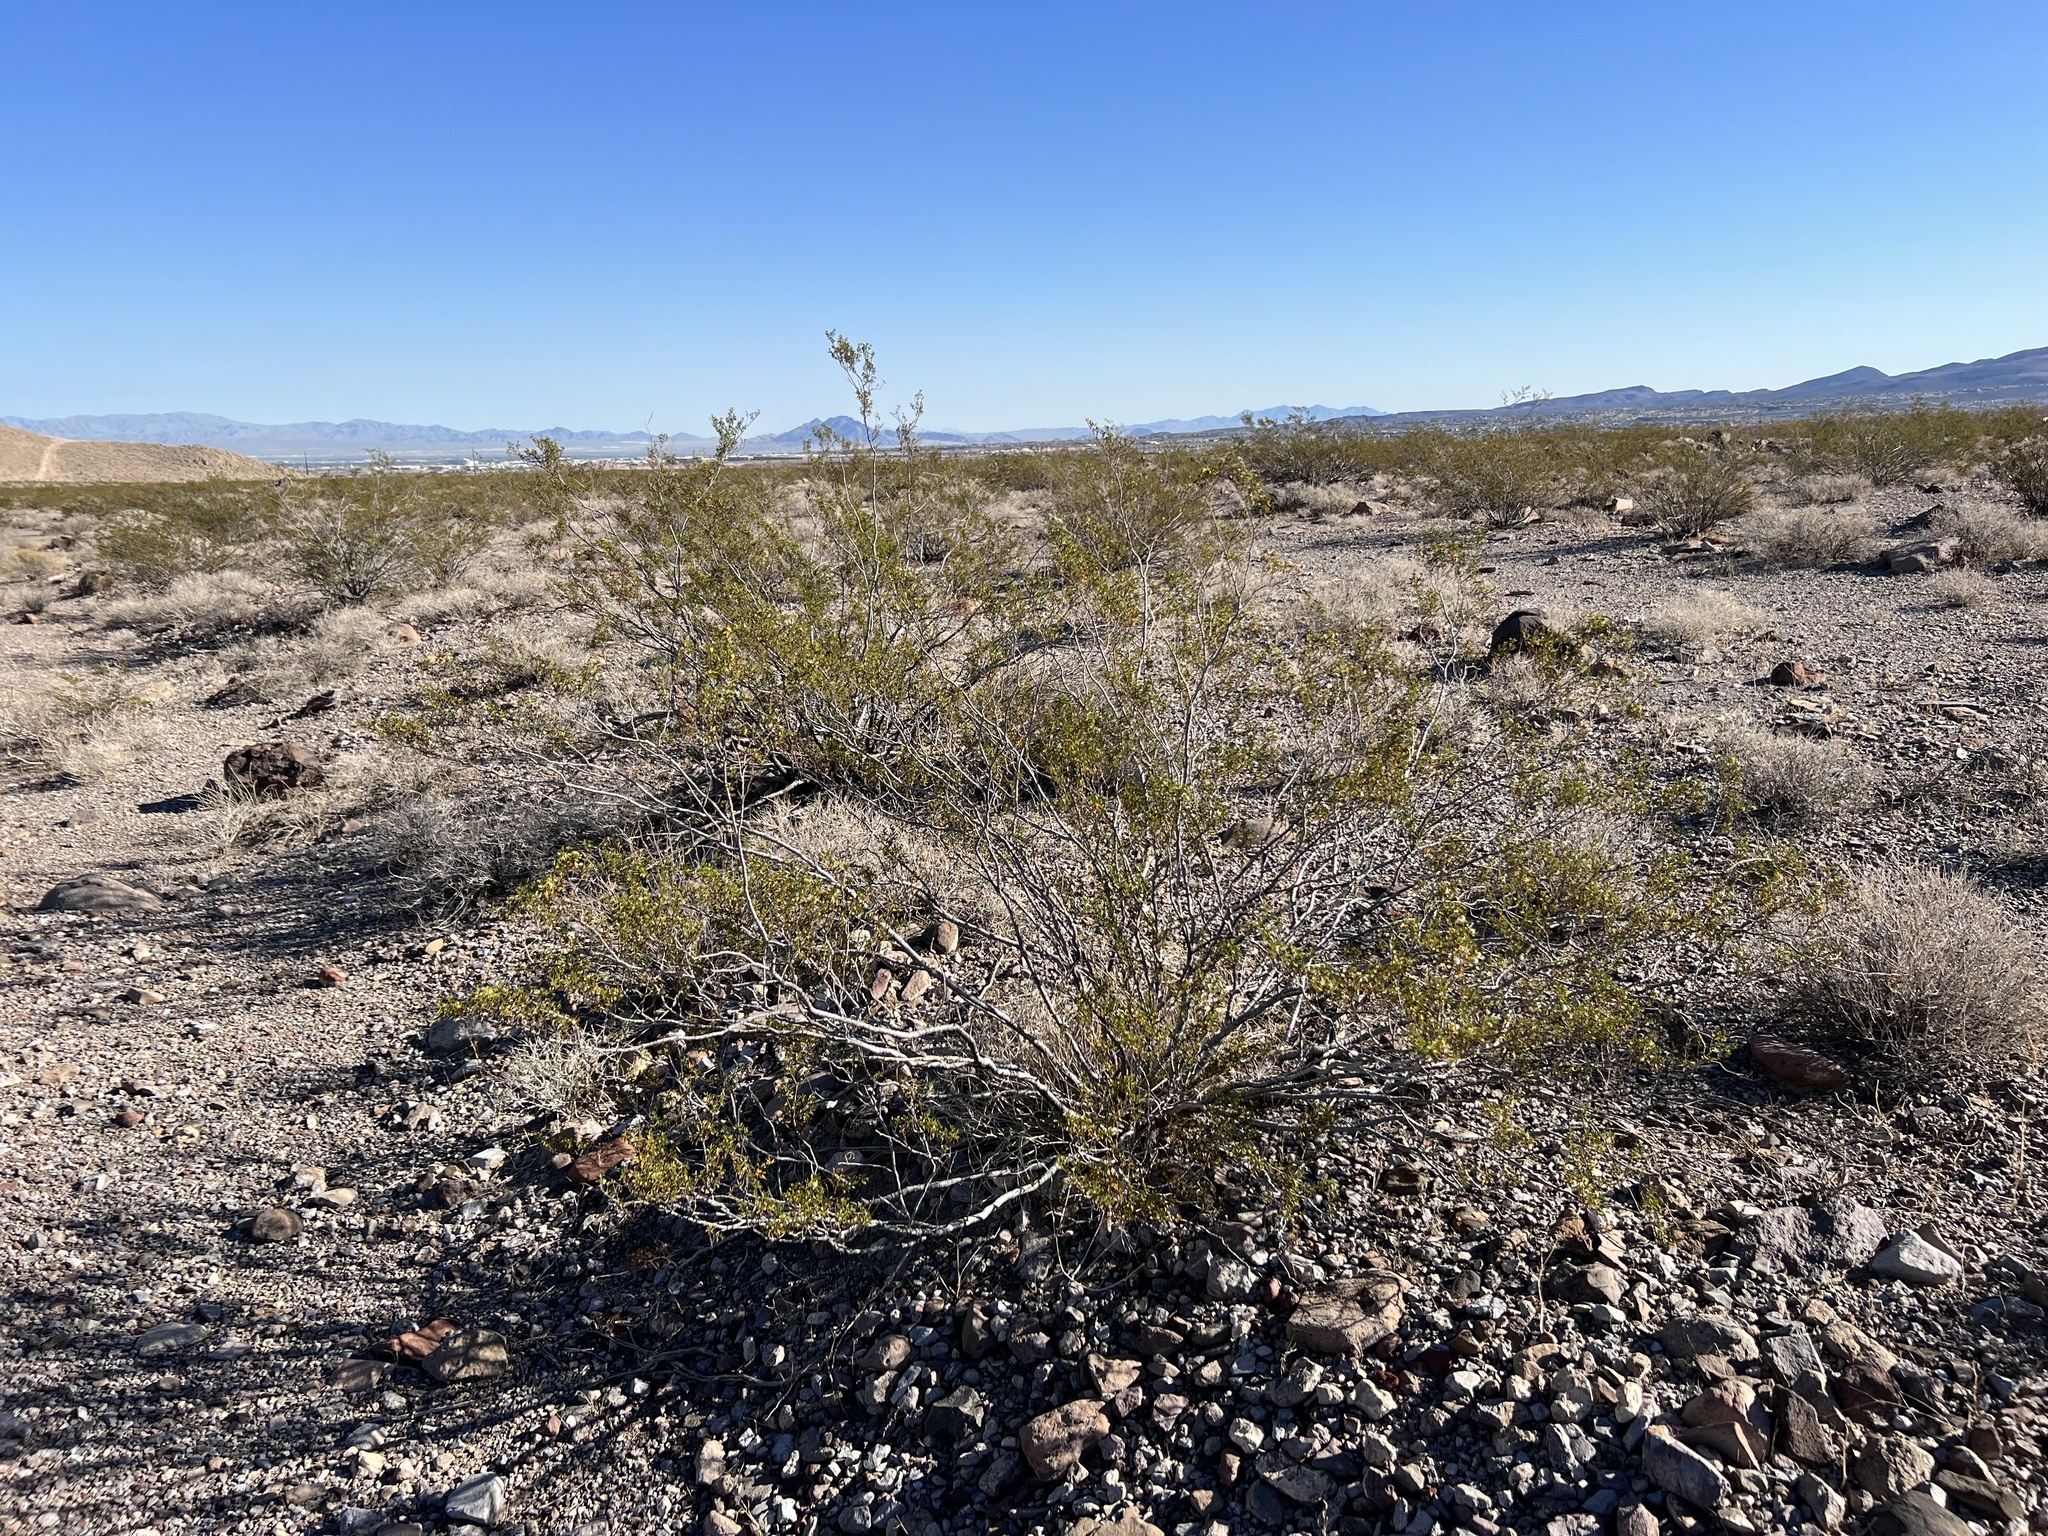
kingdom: Plantae
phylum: Tracheophyta
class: Magnoliopsida
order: Zygophyllales
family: Zygophyllaceae
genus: Larrea
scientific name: Larrea tridentata
